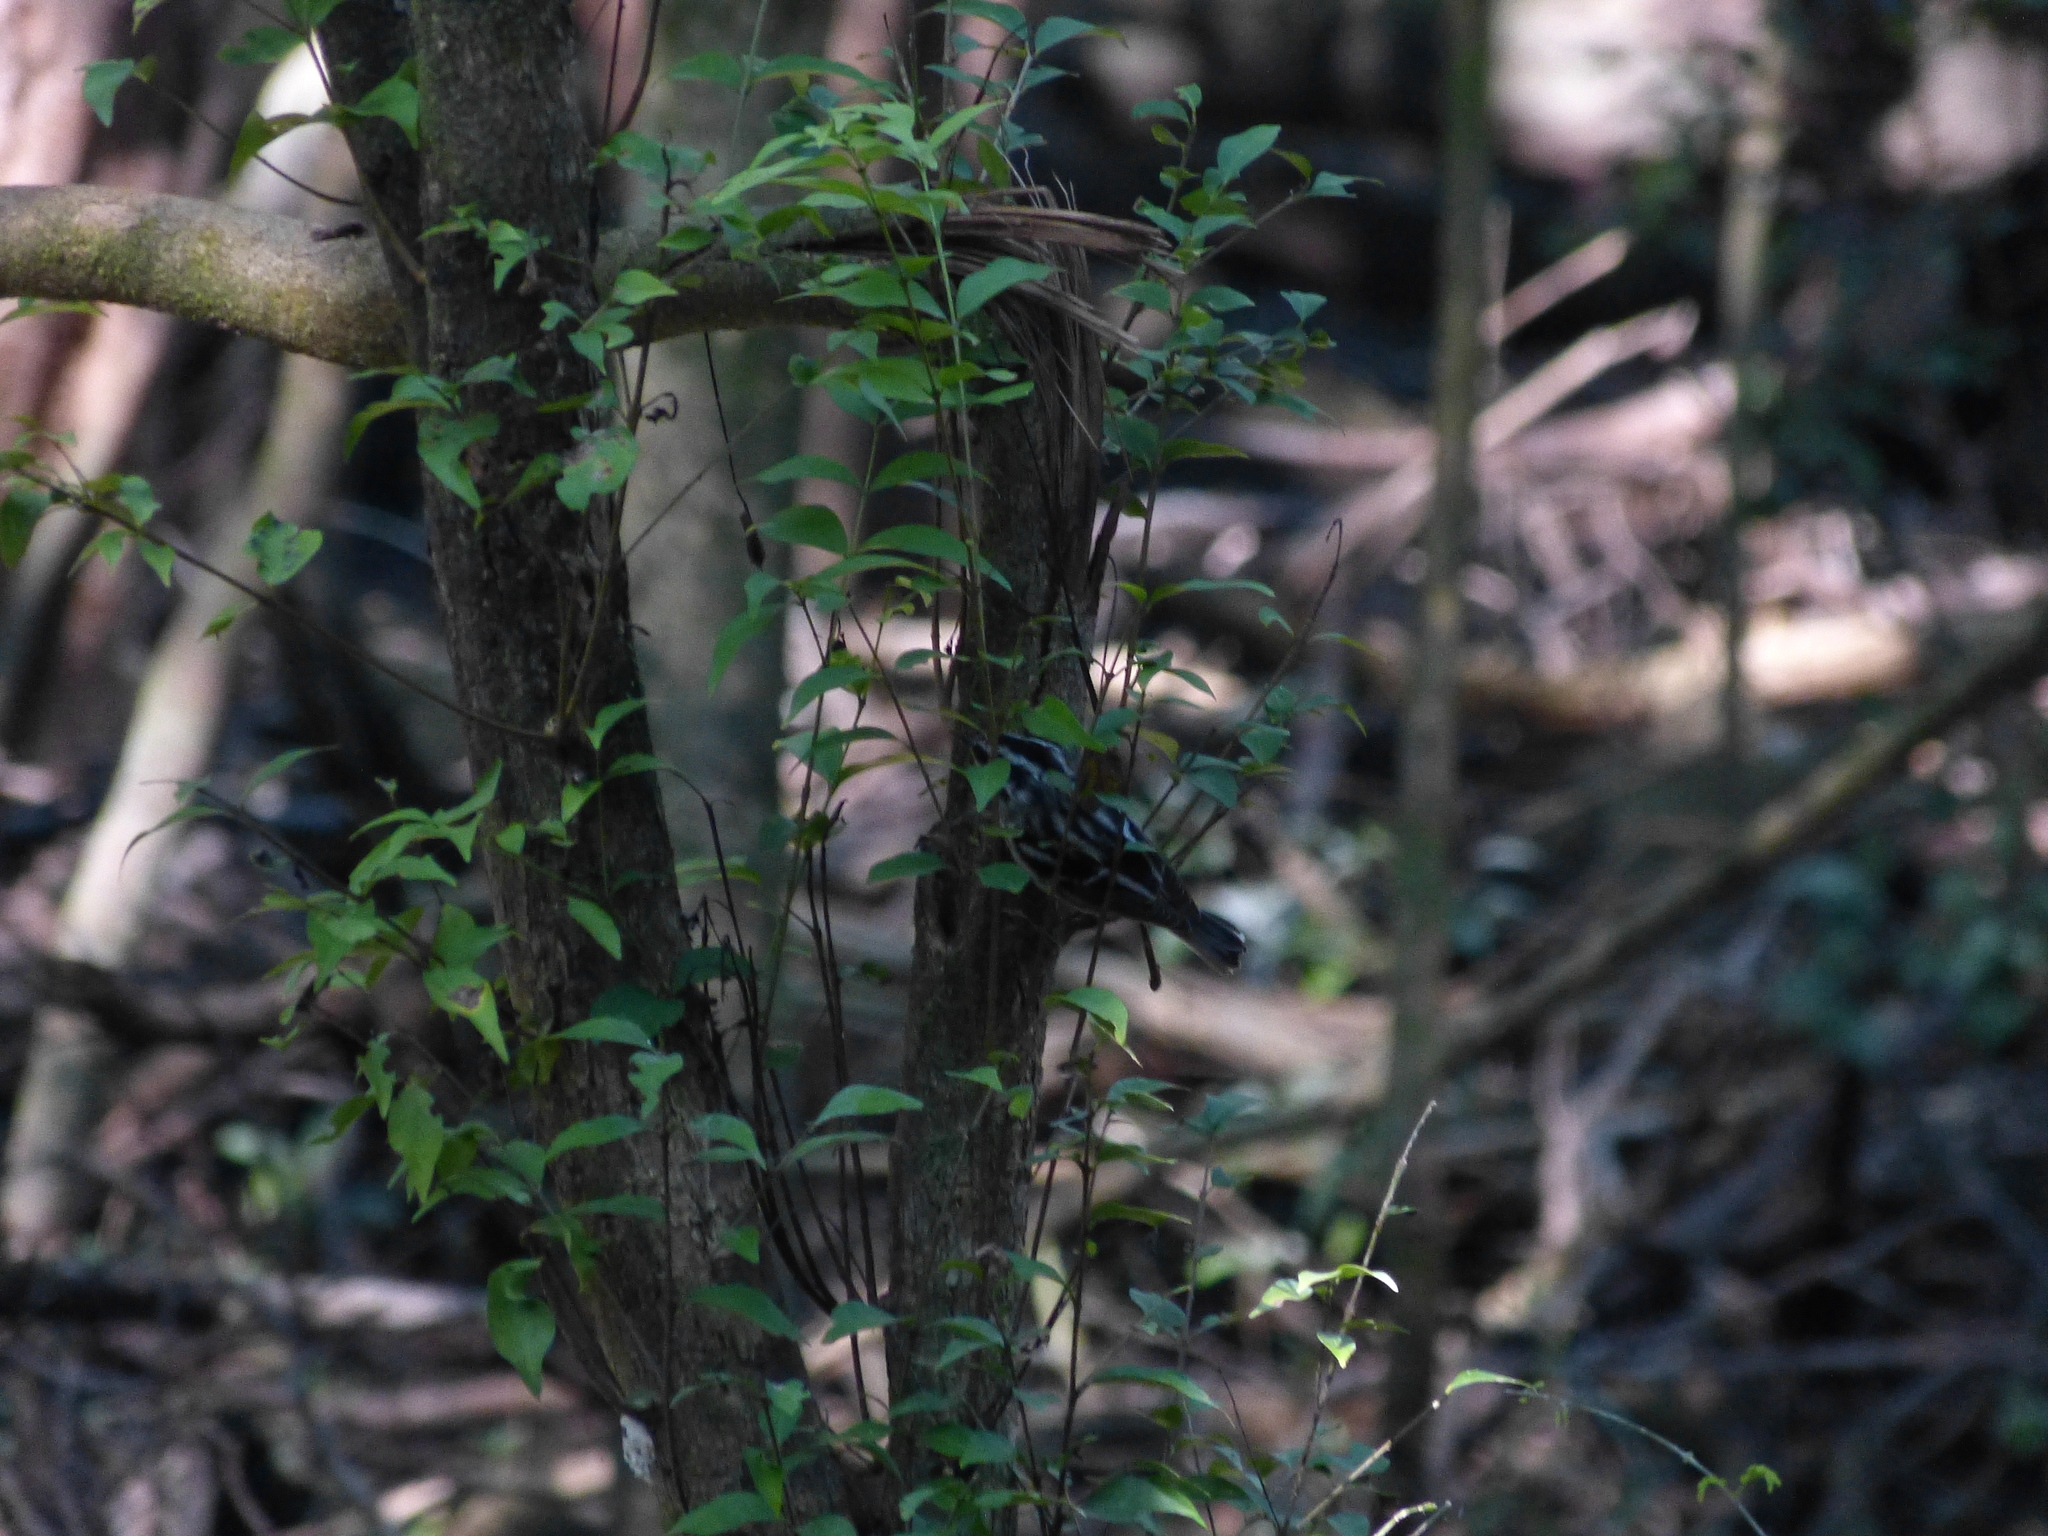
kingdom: Animalia
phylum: Chordata
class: Aves
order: Passeriformes
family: Parulidae
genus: Mniotilta
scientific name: Mniotilta varia
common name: Black-and-white warbler
